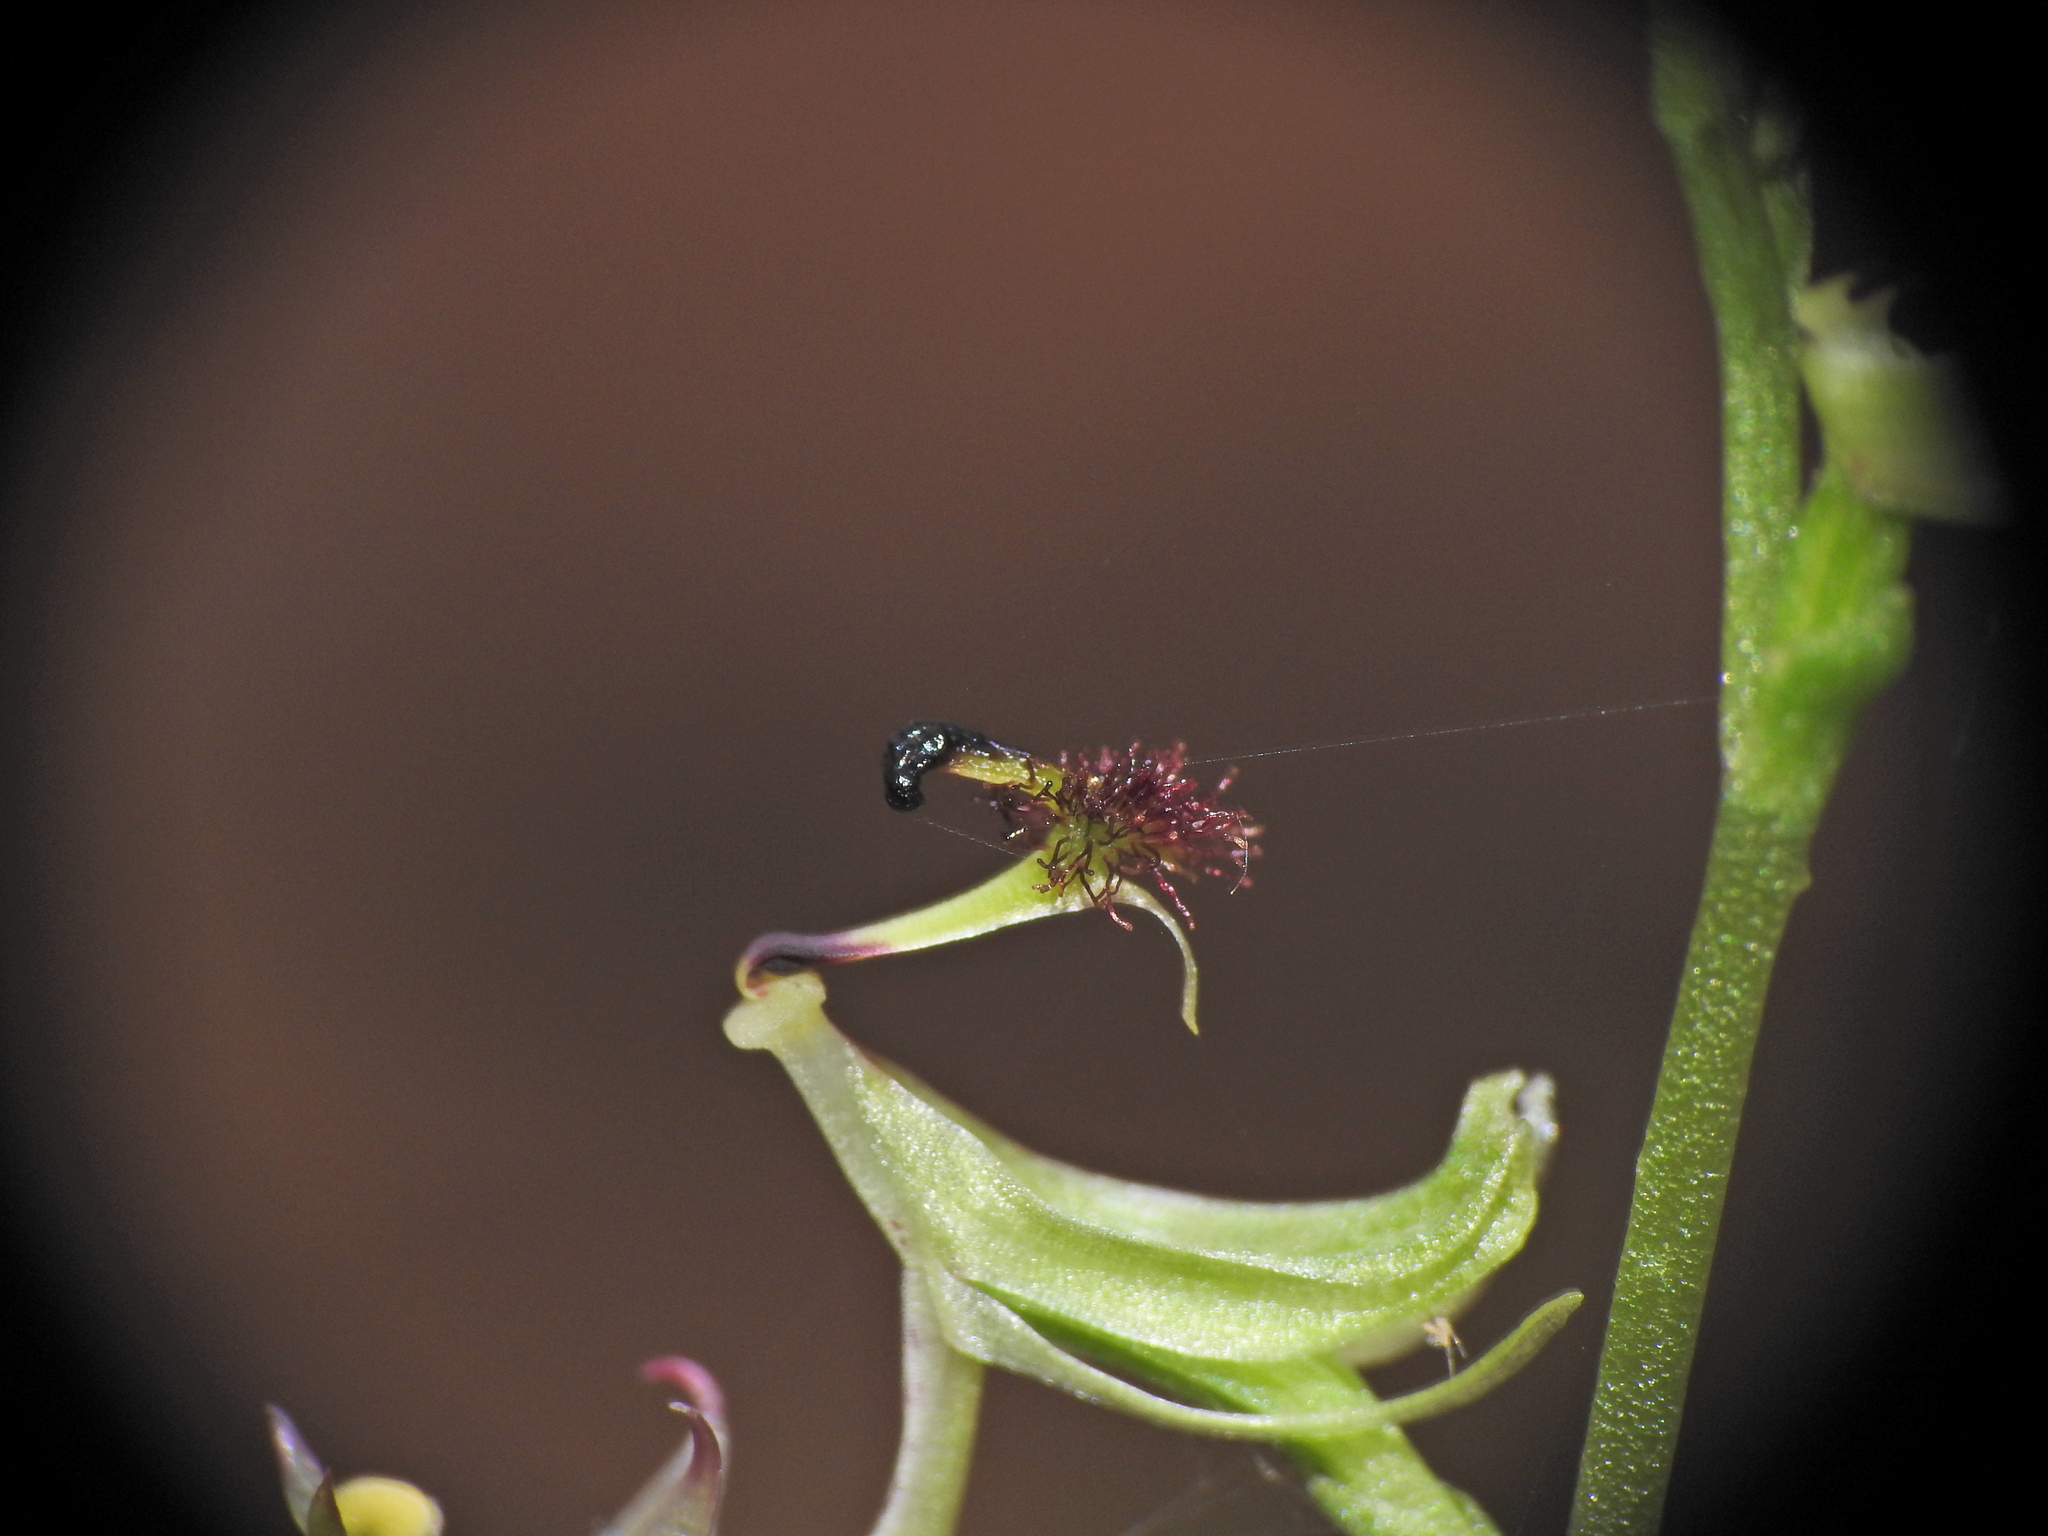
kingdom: Plantae
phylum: Tracheophyta
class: Liliopsida
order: Asparagales
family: Orchidaceae
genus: Arthrochilus
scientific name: Arthrochilus prolixus
